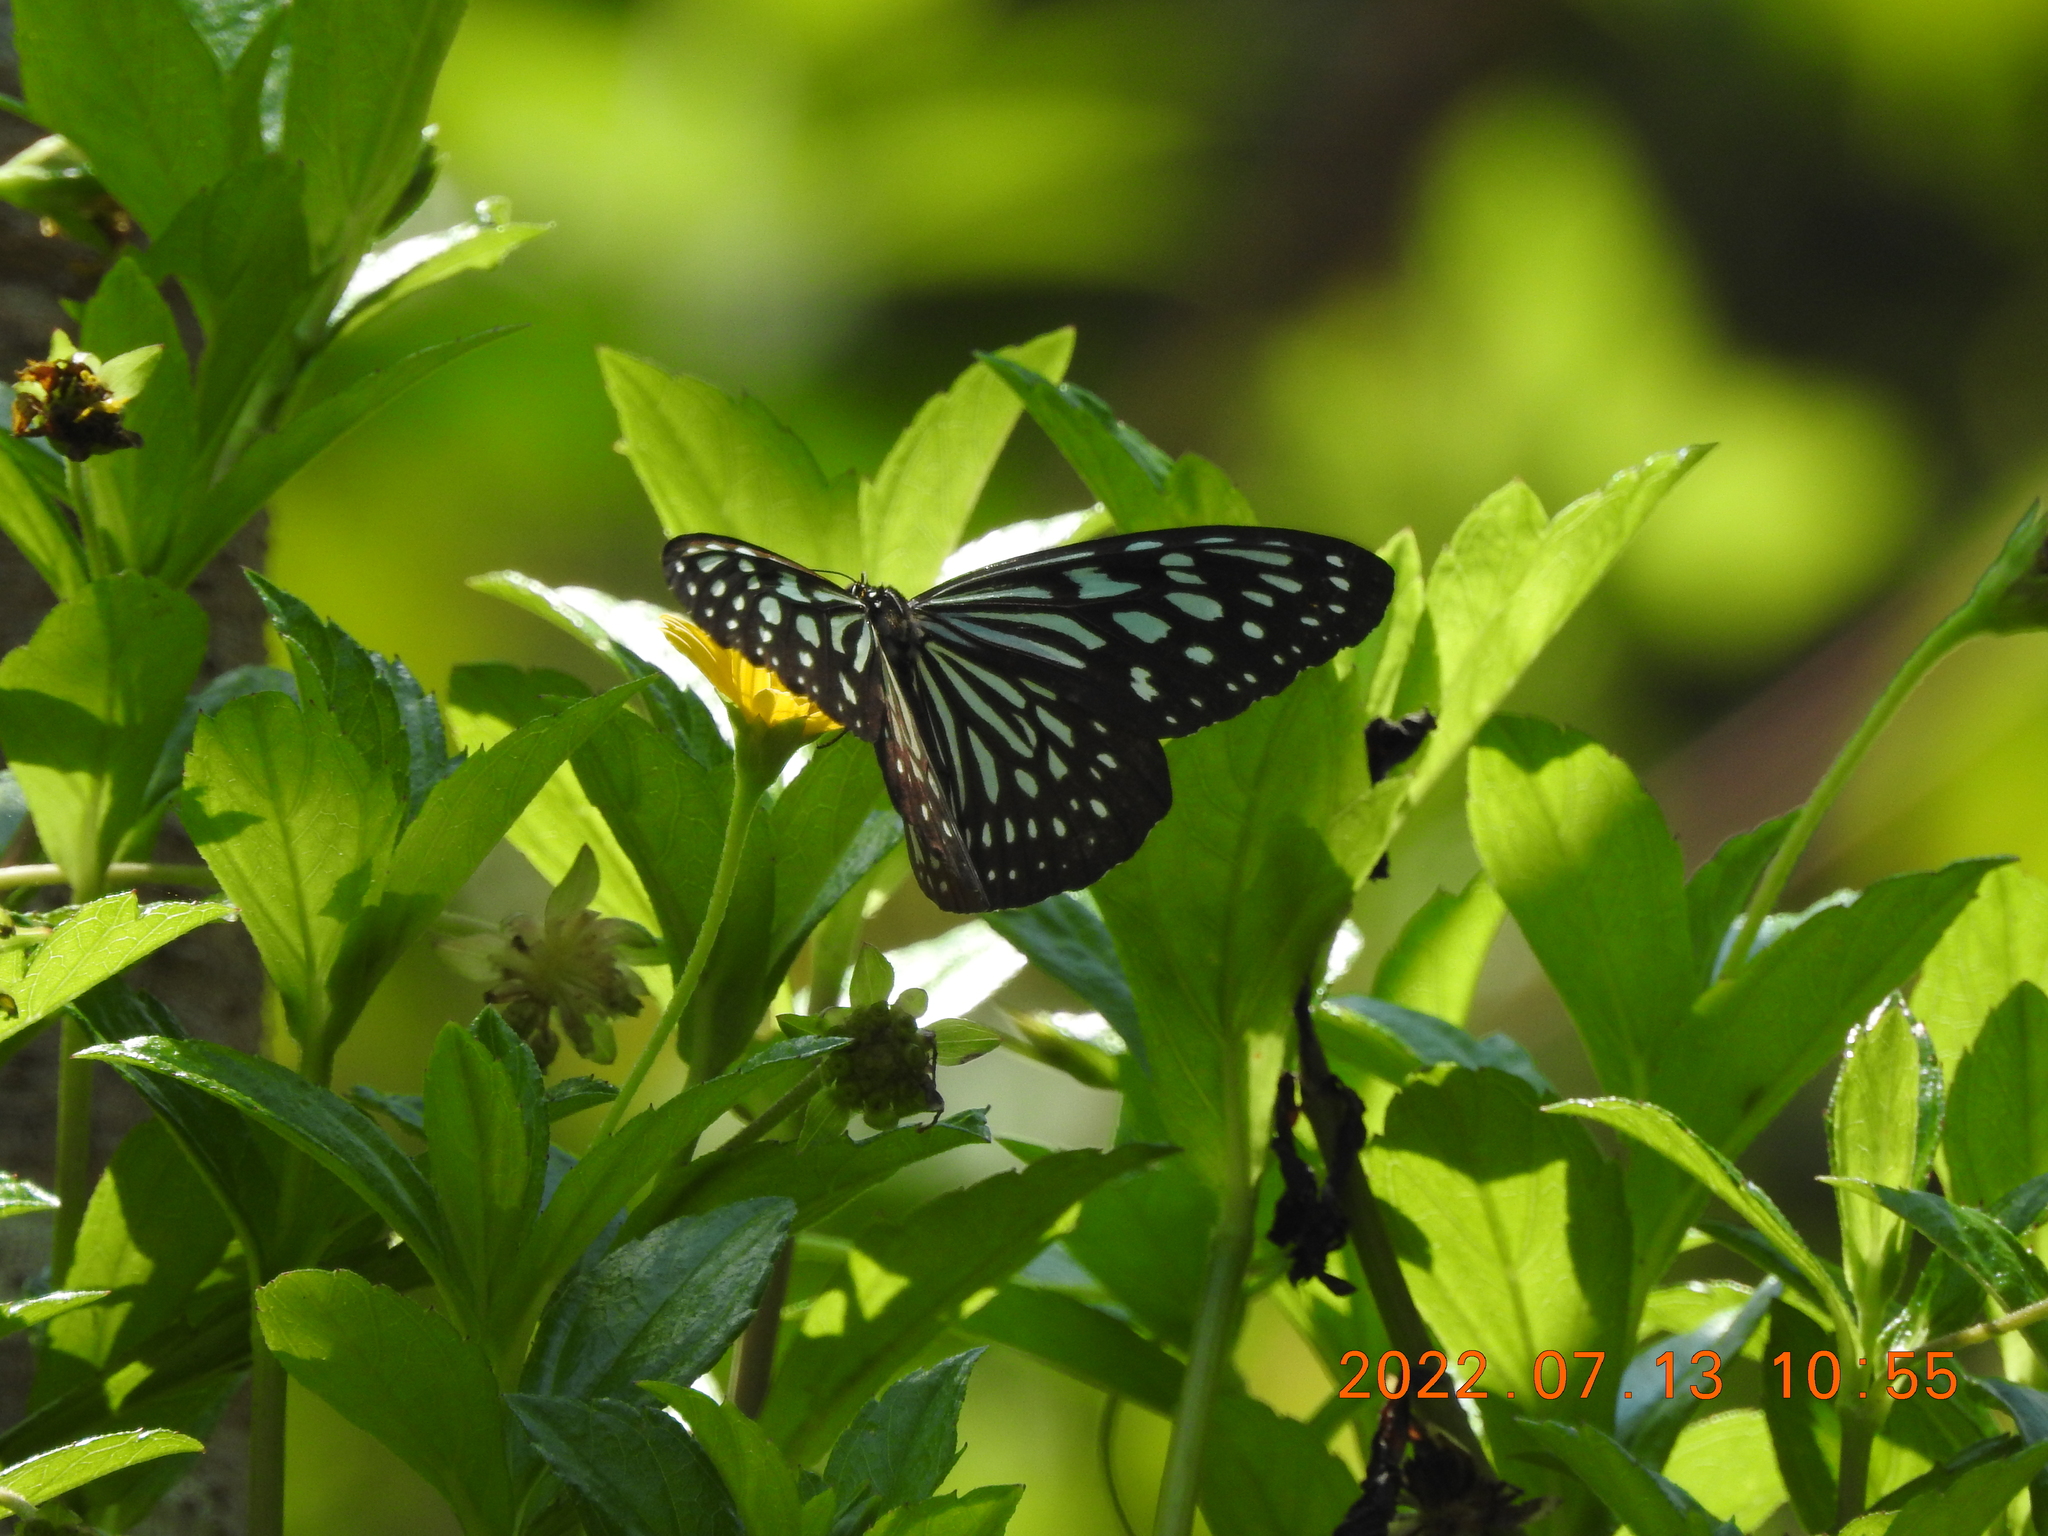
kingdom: Animalia
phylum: Arthropoda
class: Insecta
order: Lepidoptera
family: Nymphalidae
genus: Ideopsis
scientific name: Ideopsis similis
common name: Ceylon blue glassy tiger
